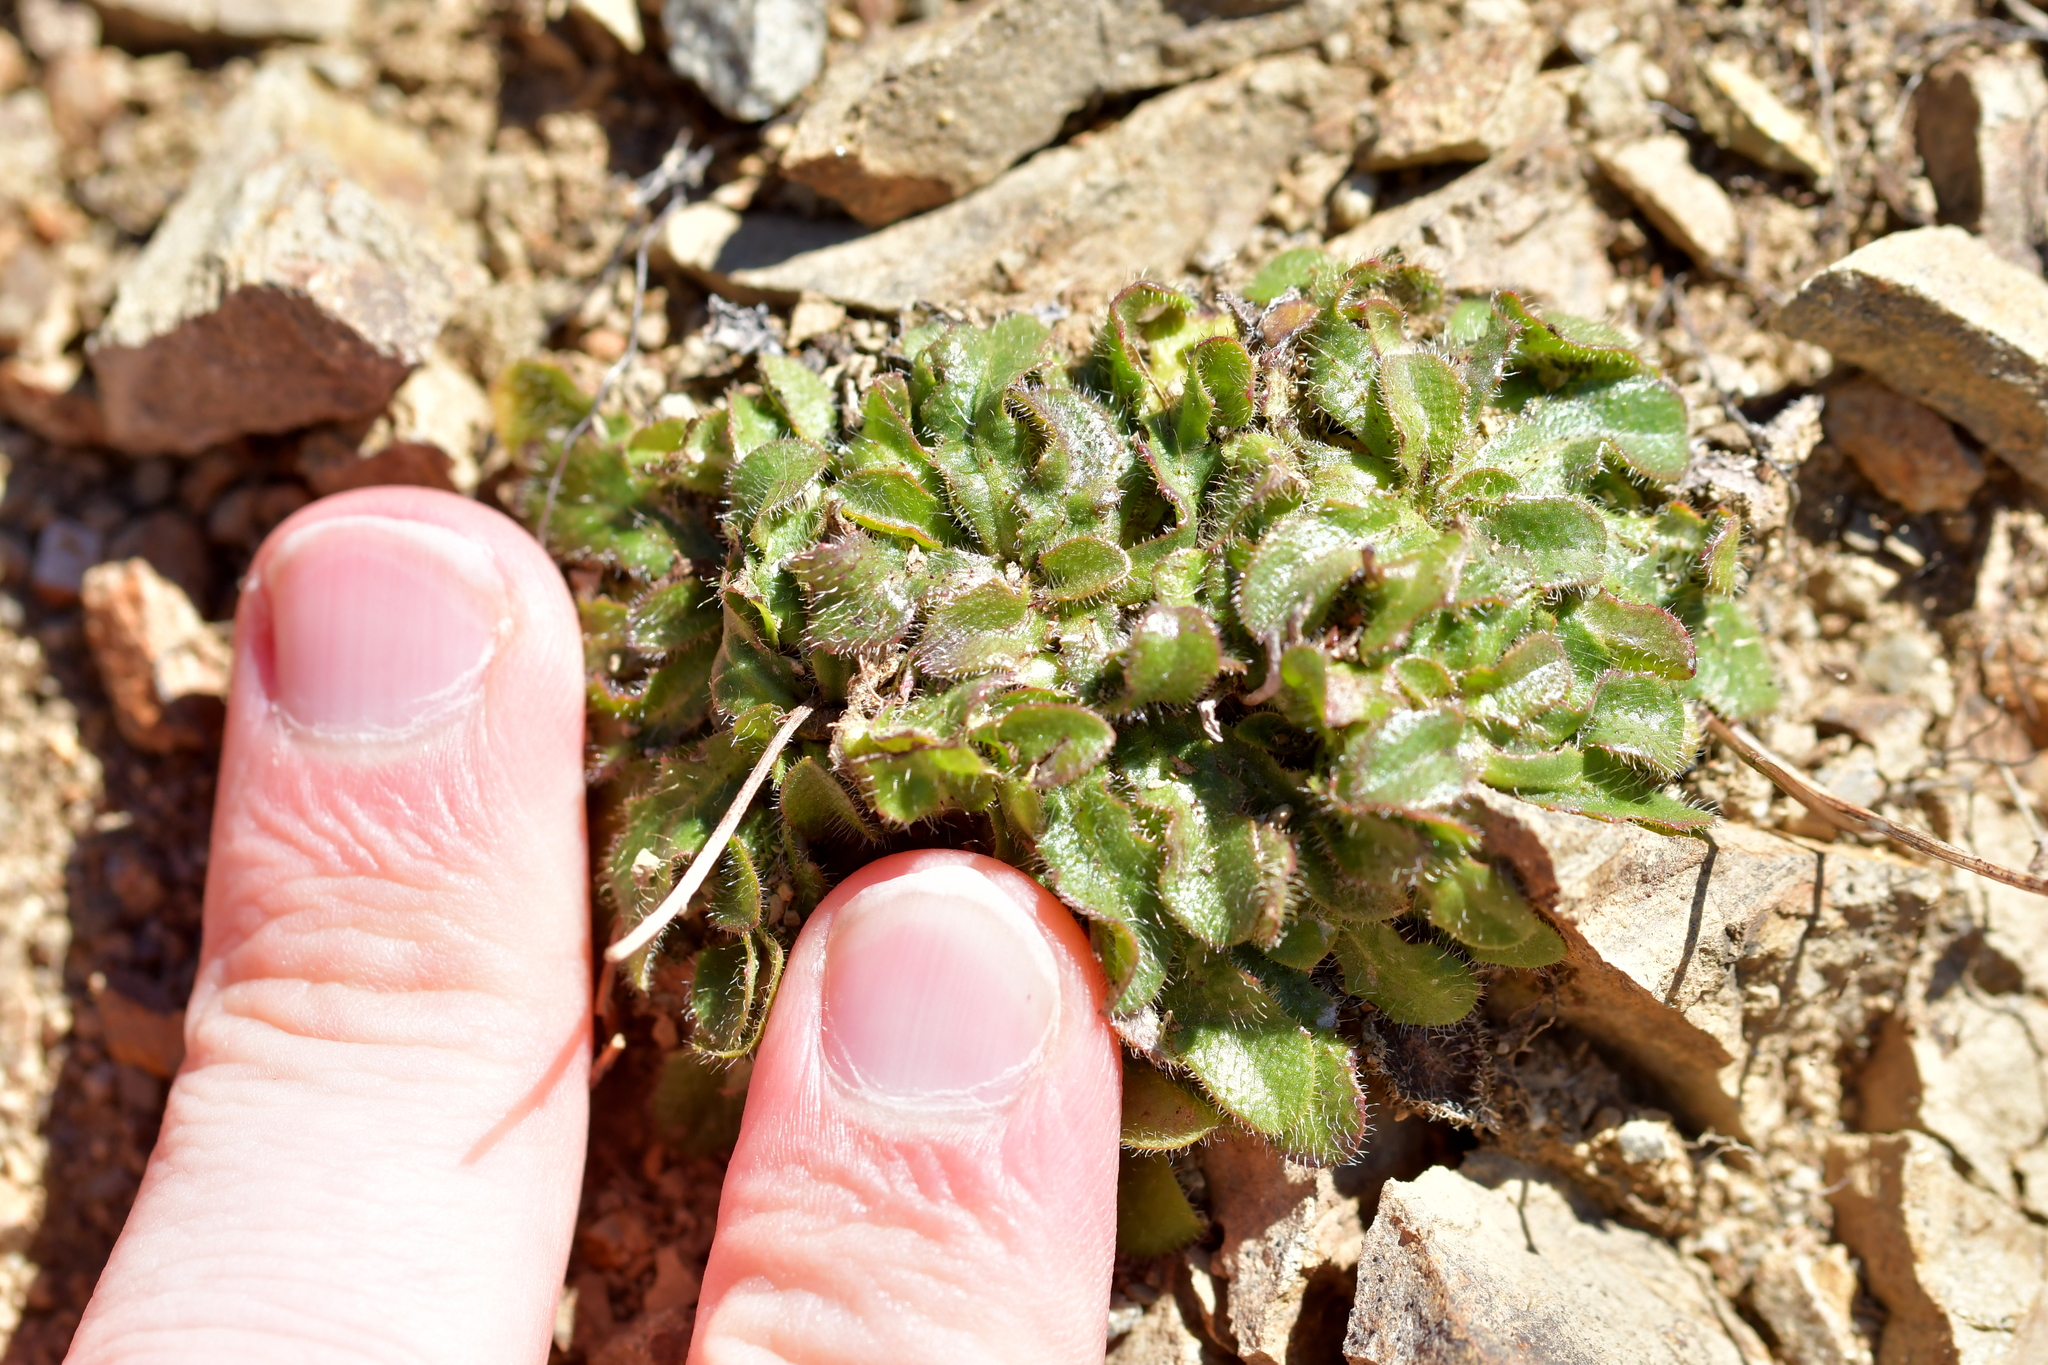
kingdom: Plantae
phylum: Tracheophyta
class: Magnoliopsida
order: Asterales
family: Asteraceae
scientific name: Asteraceae
